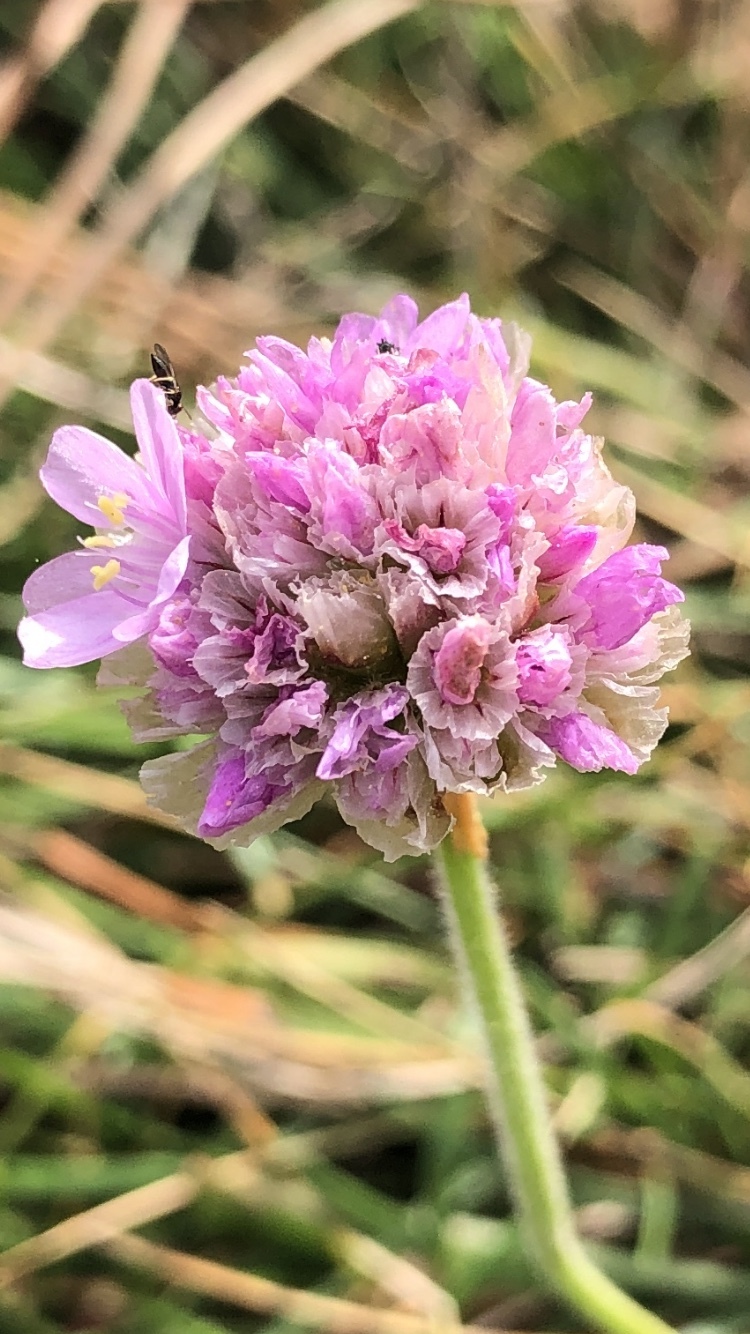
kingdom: Plantae
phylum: Tracheophyta
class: Magnoliopsida
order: Caryophyllales
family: Plumbaginaceae
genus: Armeria
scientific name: Armeria maritima
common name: Thrift
